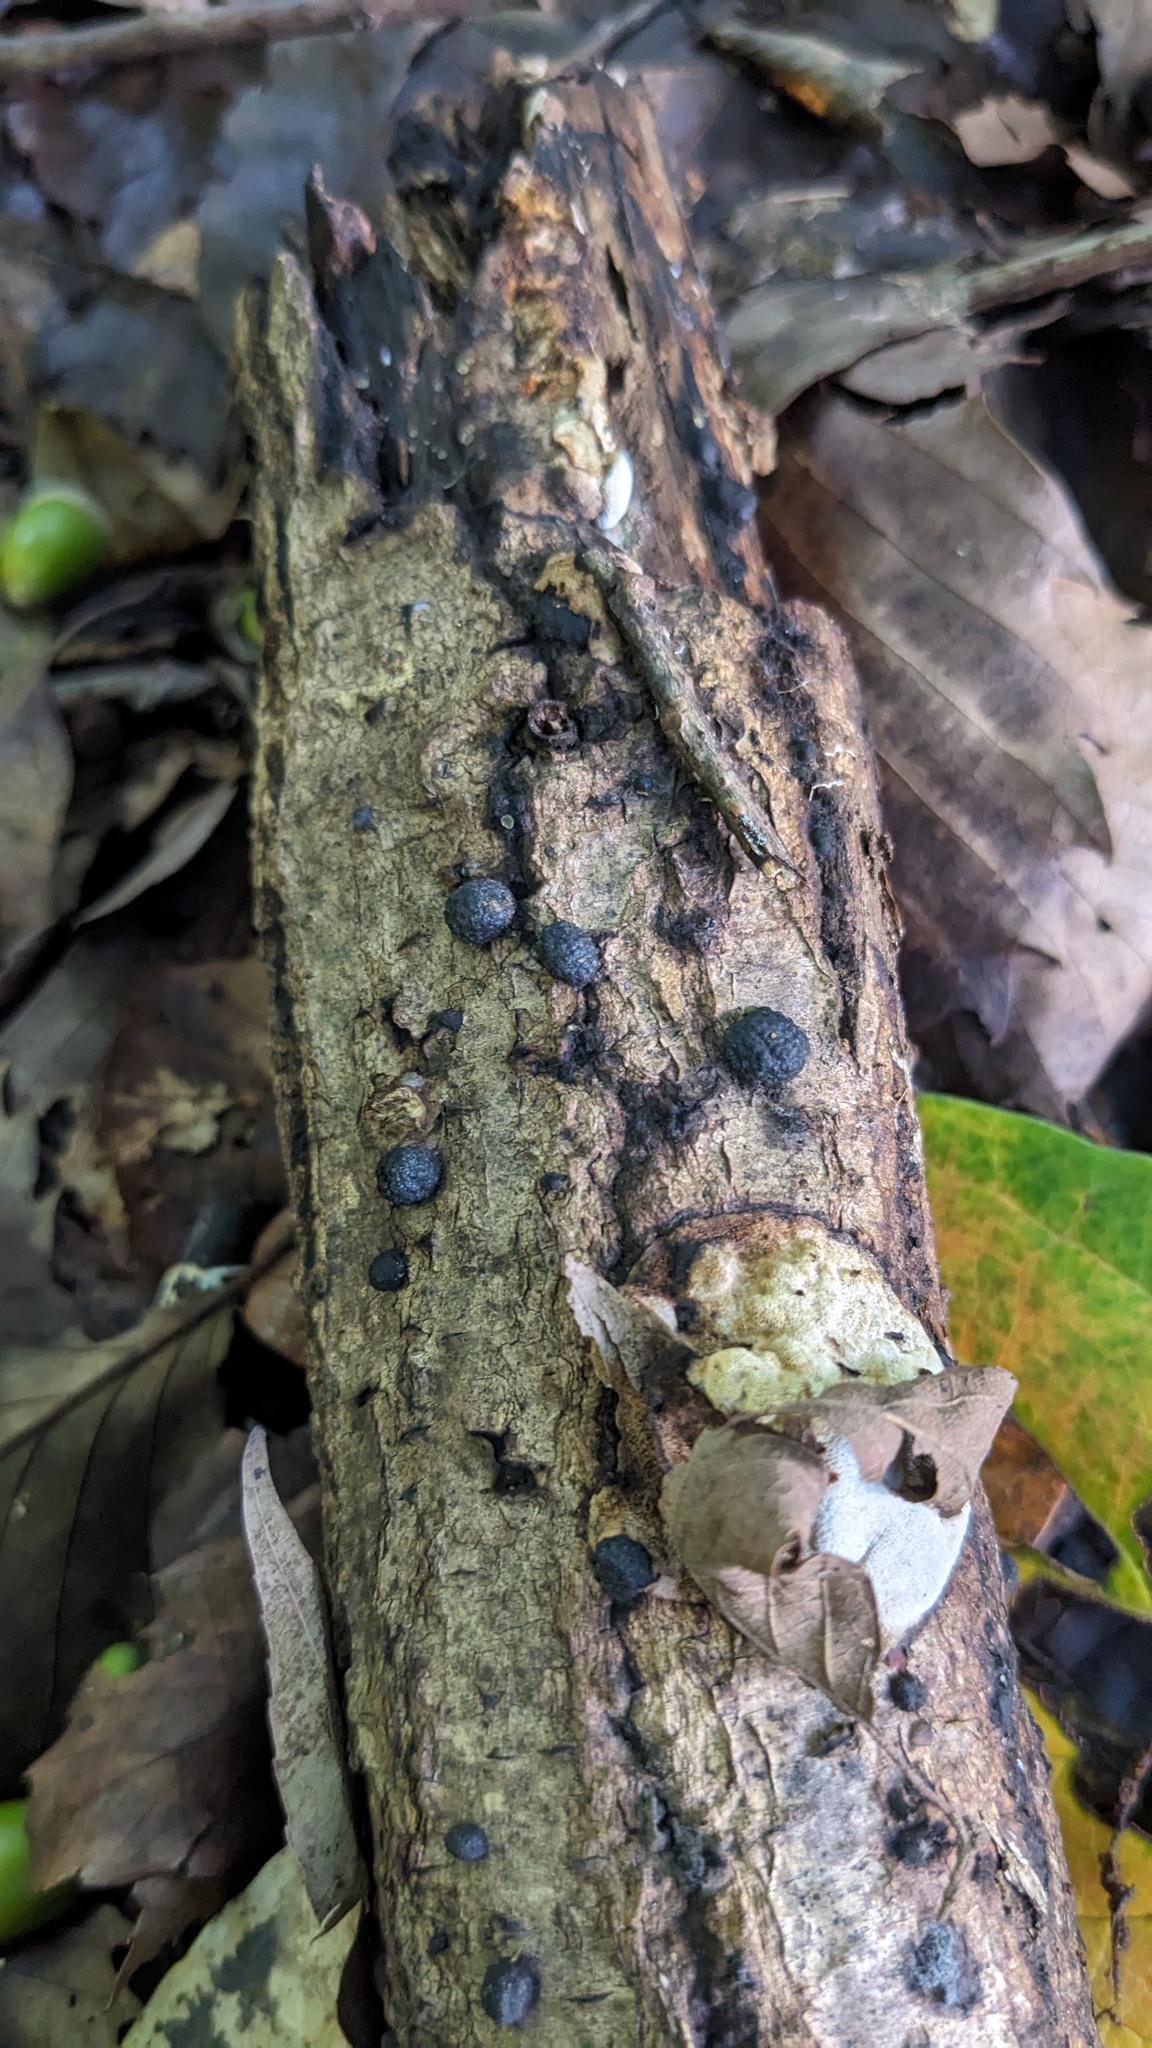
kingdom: Fungi
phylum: Ascomycota
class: Sordariomycetes
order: Xylariales
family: Hypoxylaceae
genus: Annulohypoxylon
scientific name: Annulohypoxylon truncatum
